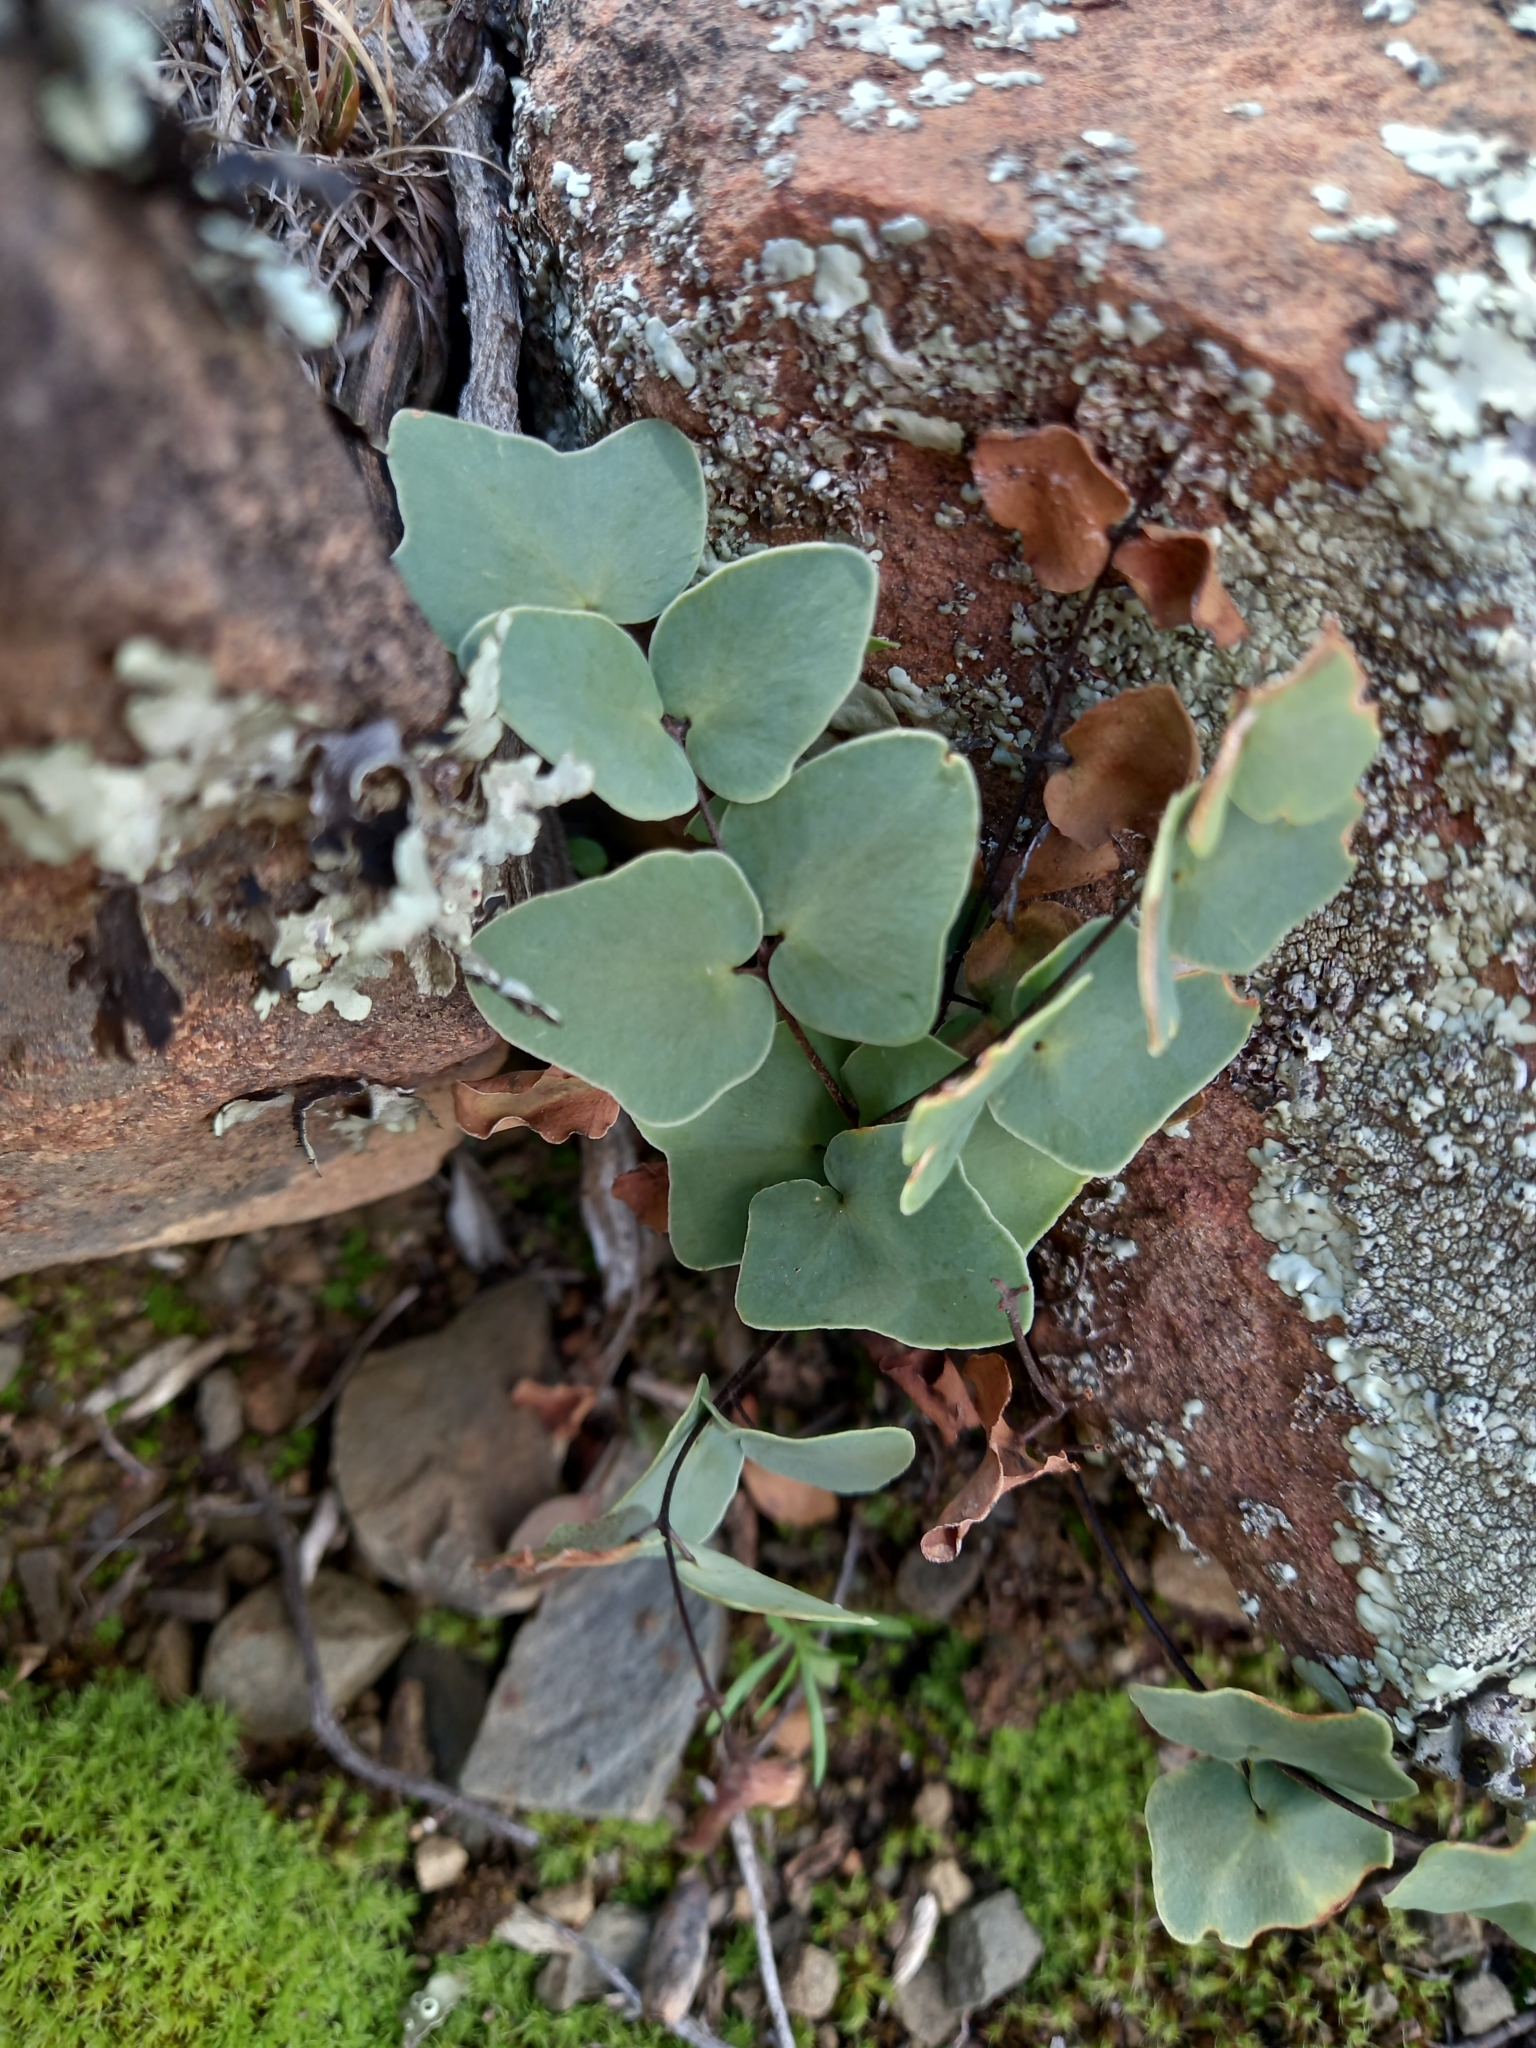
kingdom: Plantae
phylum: Tracheophyta
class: Polypodiopsida
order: Polypodiales
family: Pteridaceae
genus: Pellaea
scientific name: Pellaea calomelanos
